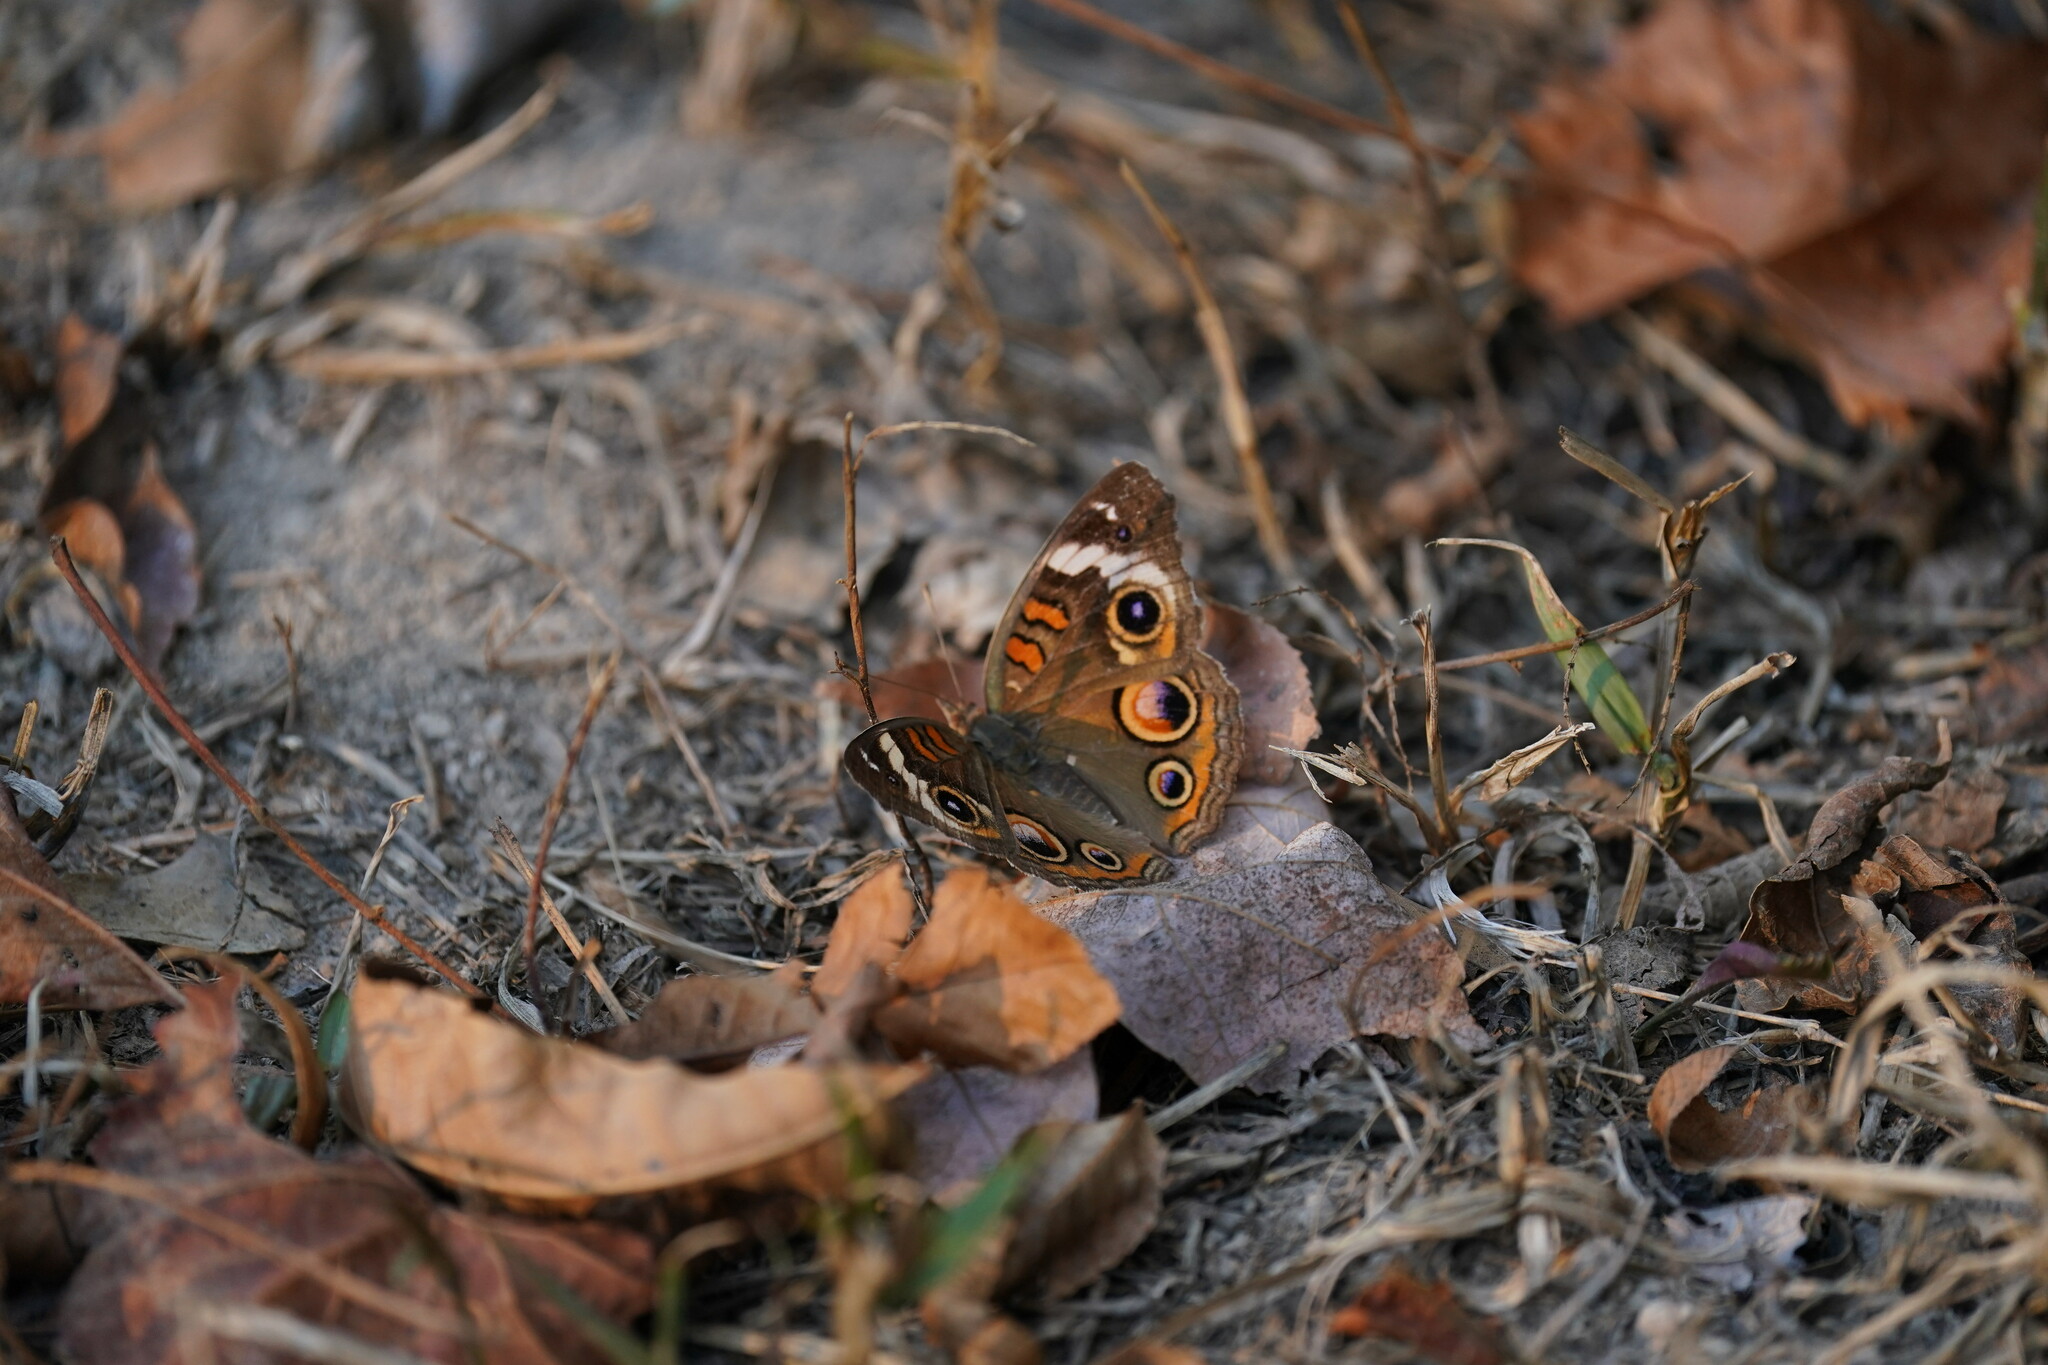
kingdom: Animalia
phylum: Arthropoda
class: Insecta
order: Lepidoptera
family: Nymphalidae
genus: Junonia
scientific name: Junonia coenia
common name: Common buckeye
